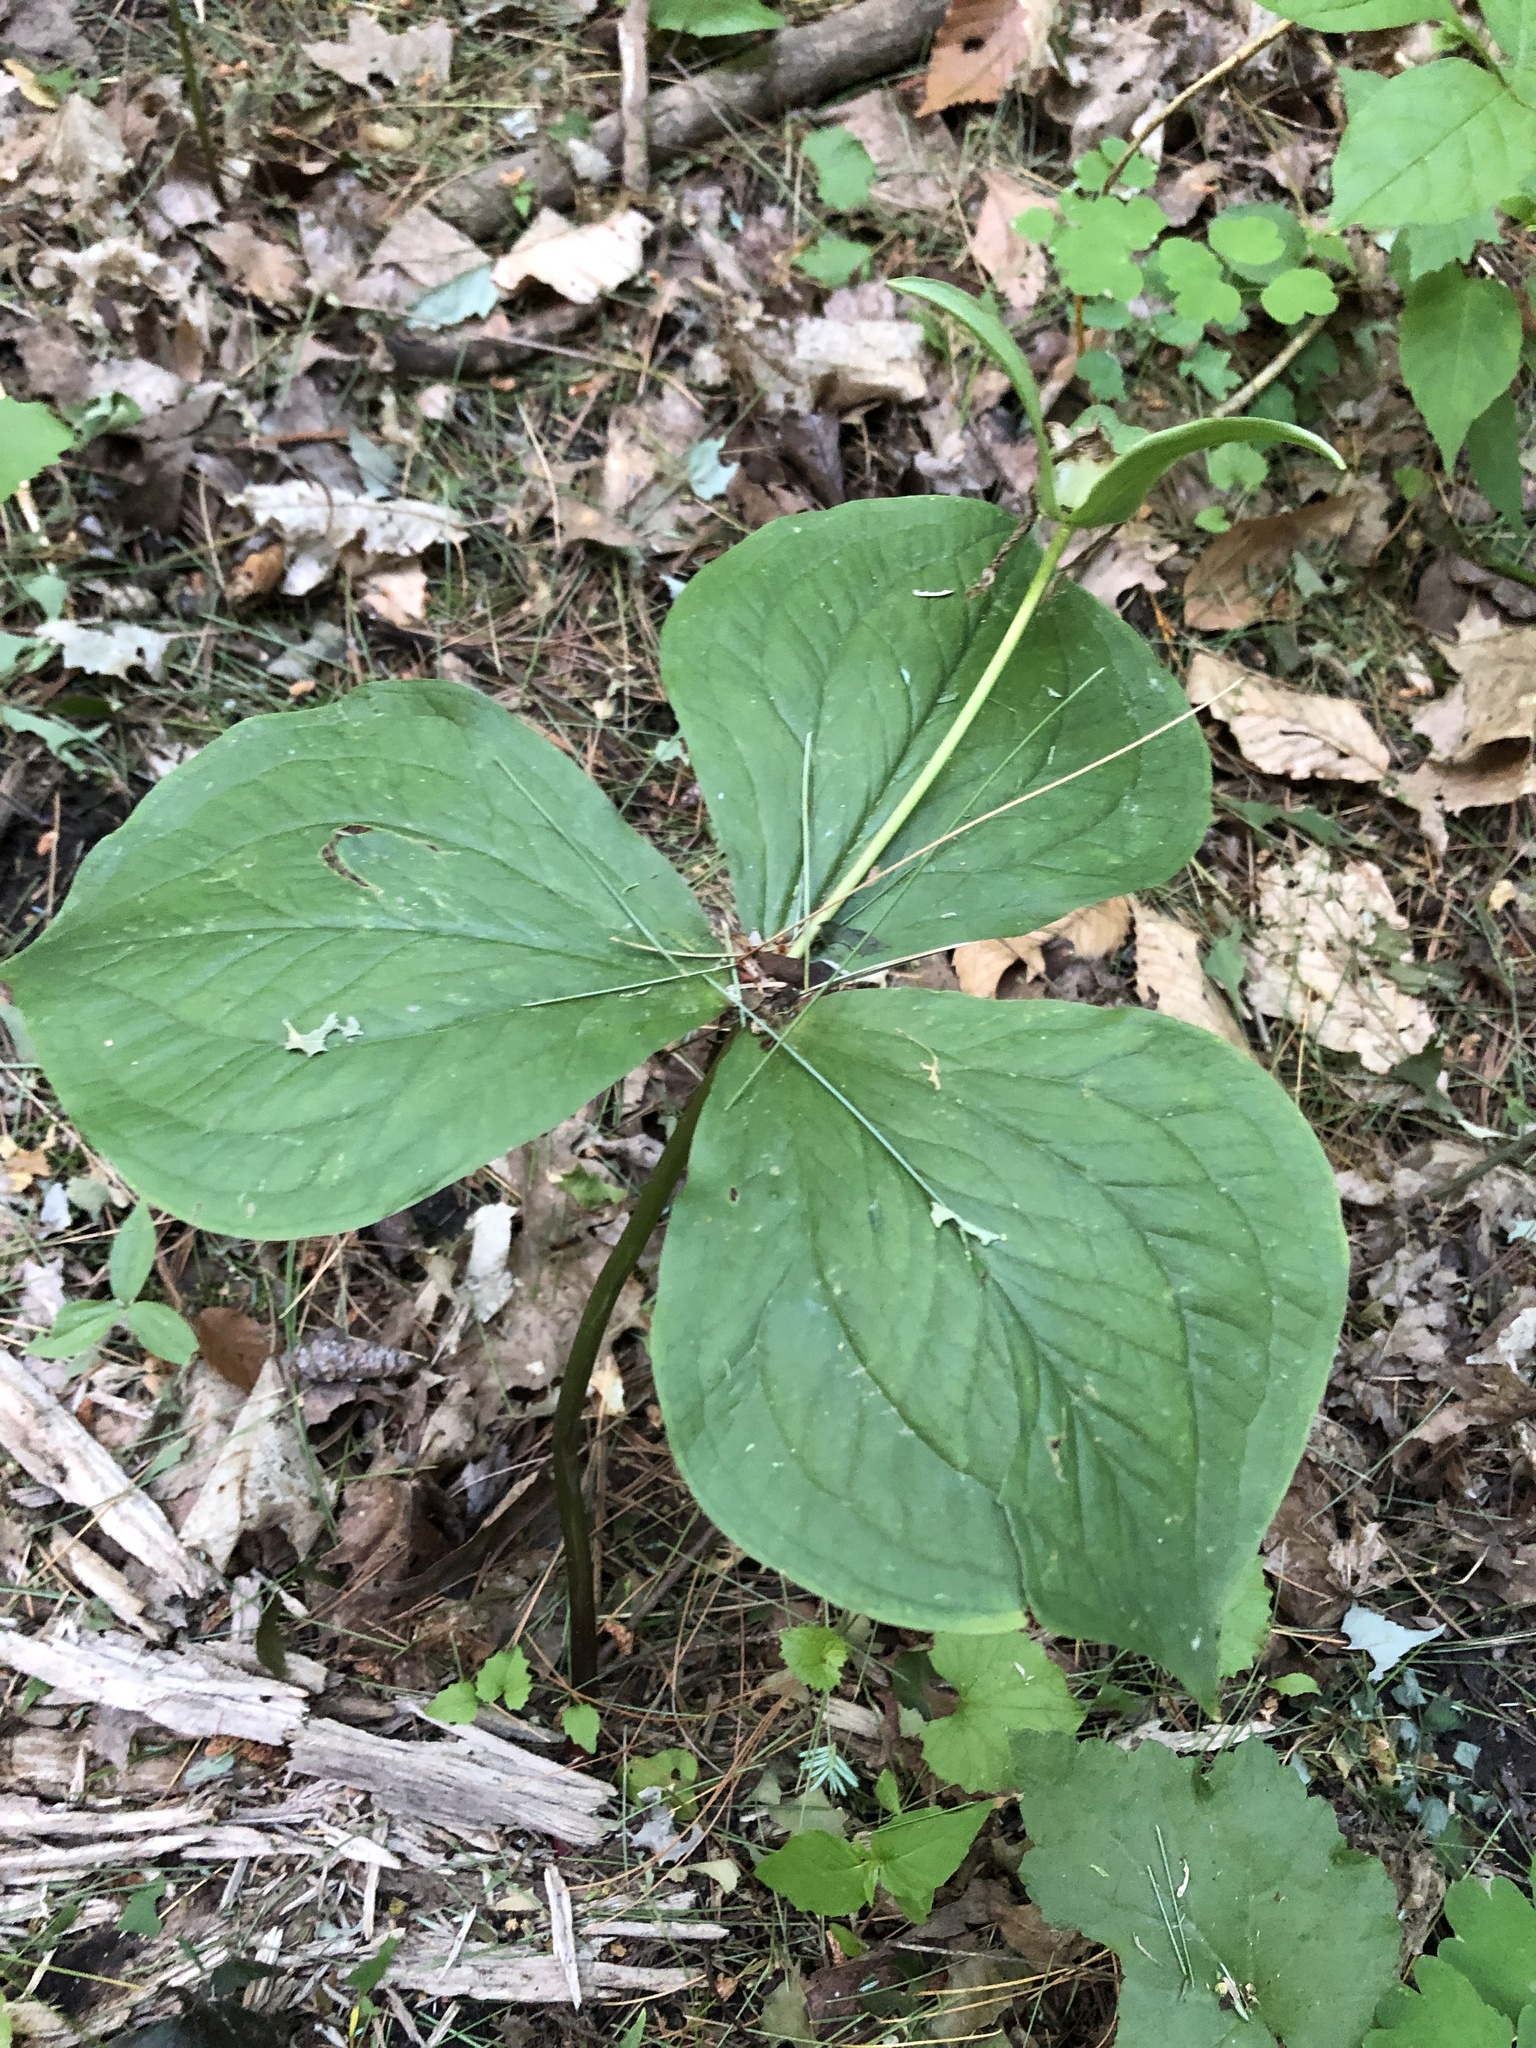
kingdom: Plantae
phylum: Tracheophyta
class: Liliopsida
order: Liliales
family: Melanthiaceae
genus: Trillium
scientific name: Trillium grandiflorum
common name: Great white trillium
